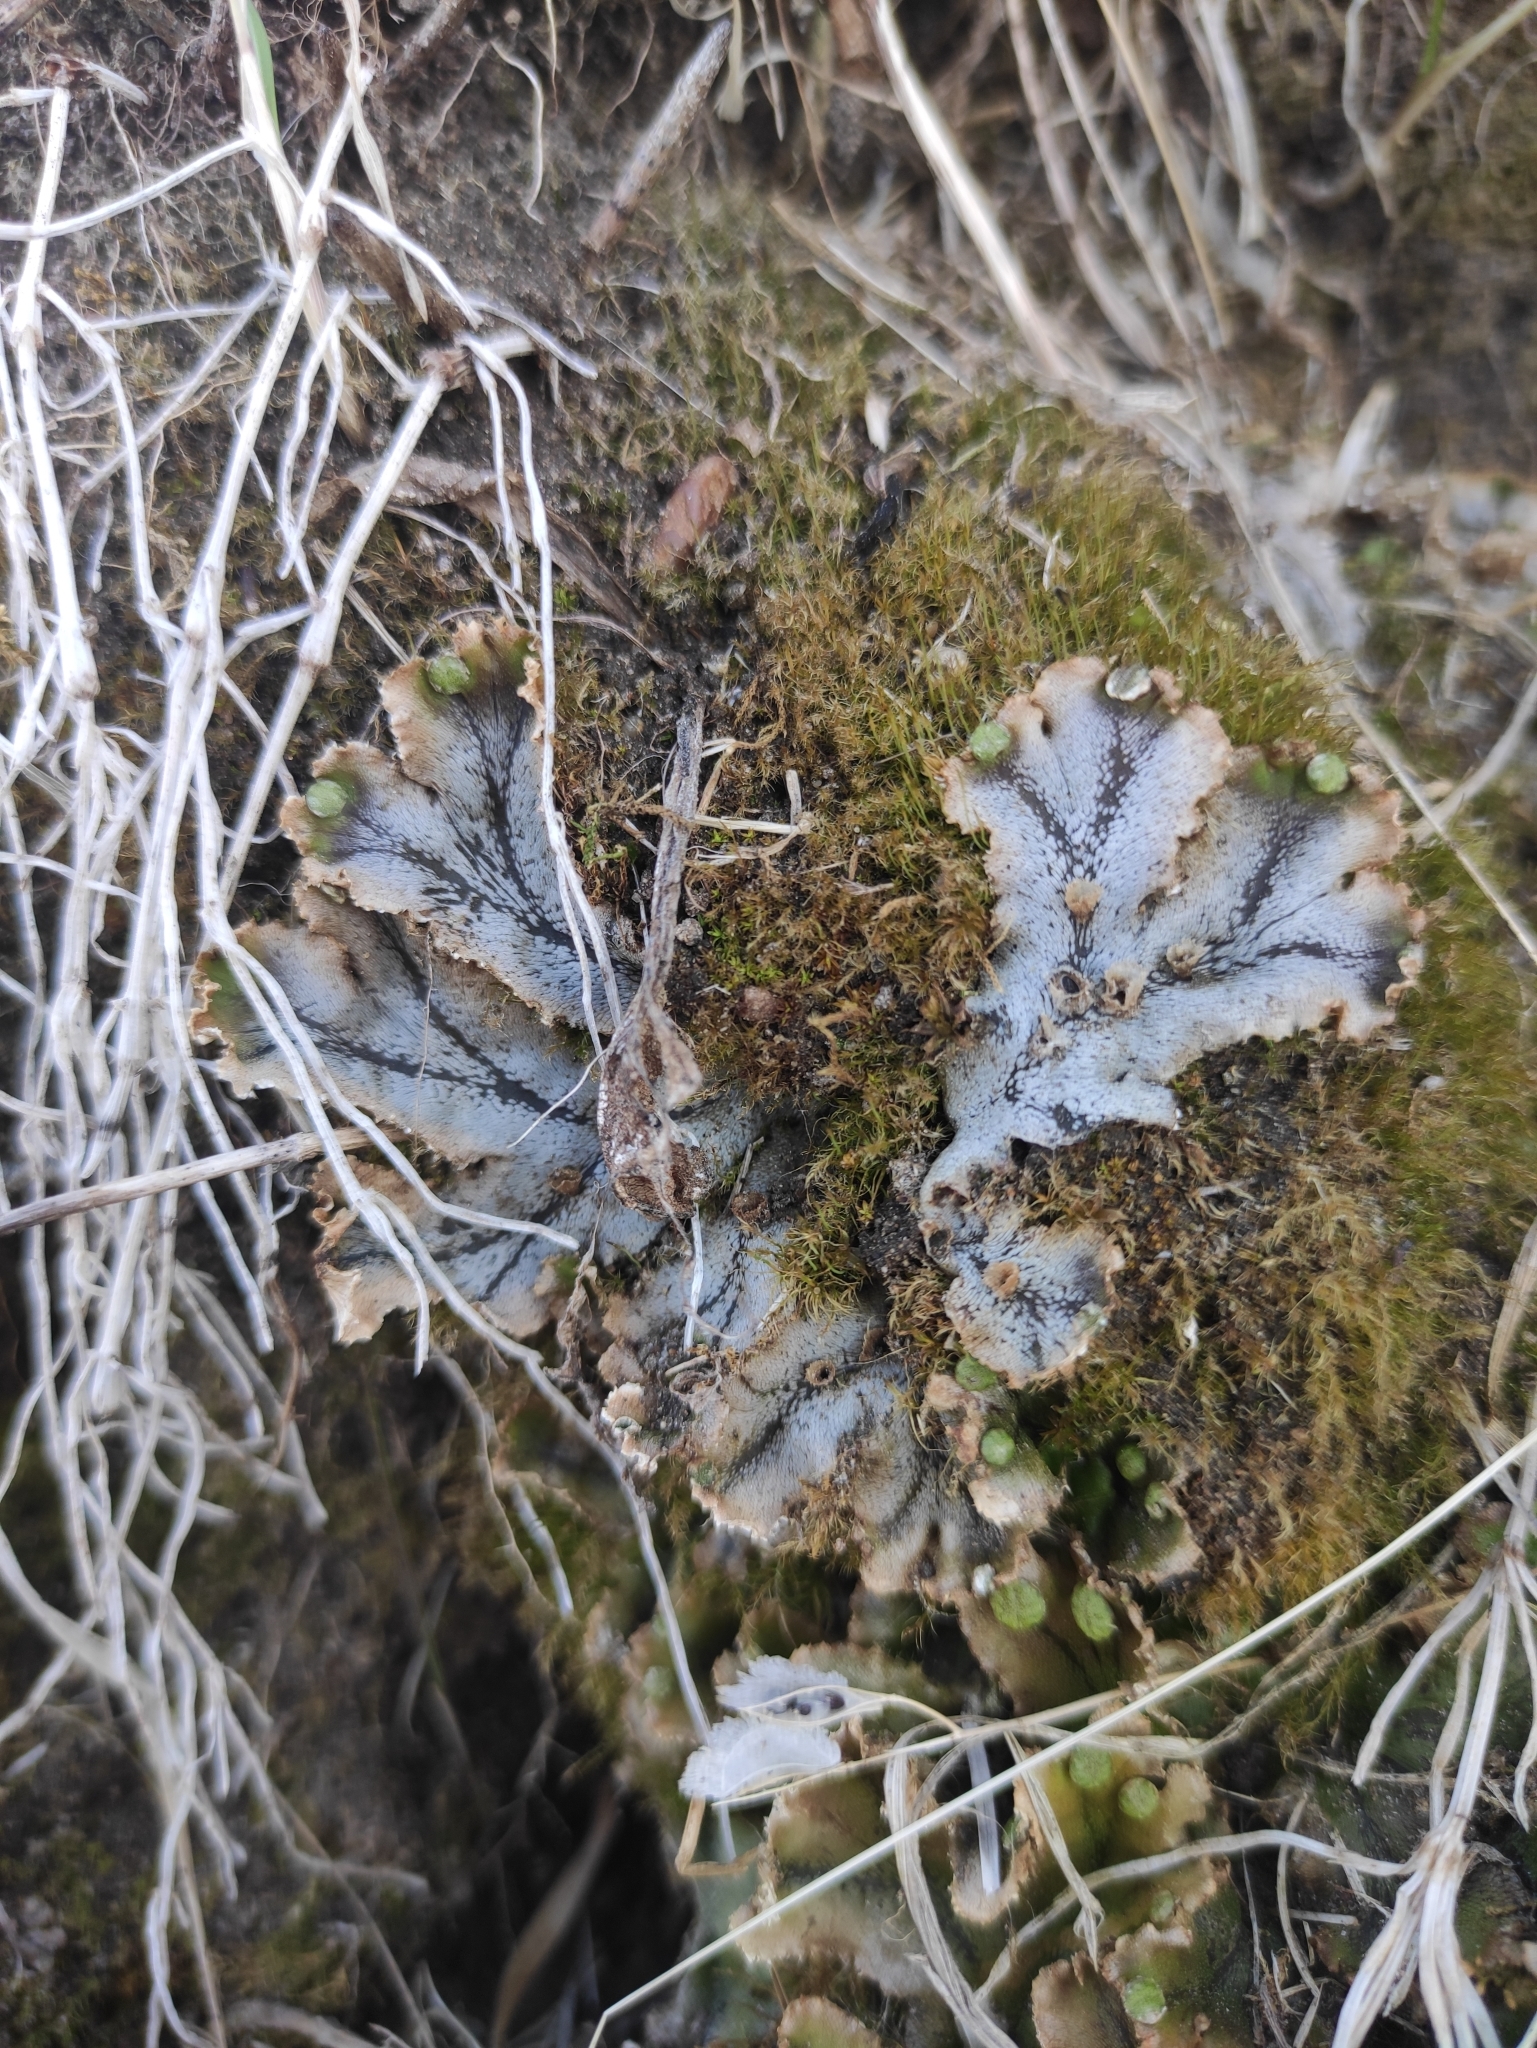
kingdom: Plantae
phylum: Marchantiophyta
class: Marchantiopsida
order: Marchantiales
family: Marchantiaceae
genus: Marchantia
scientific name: Marchantia polymorpha
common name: Common liverwort
